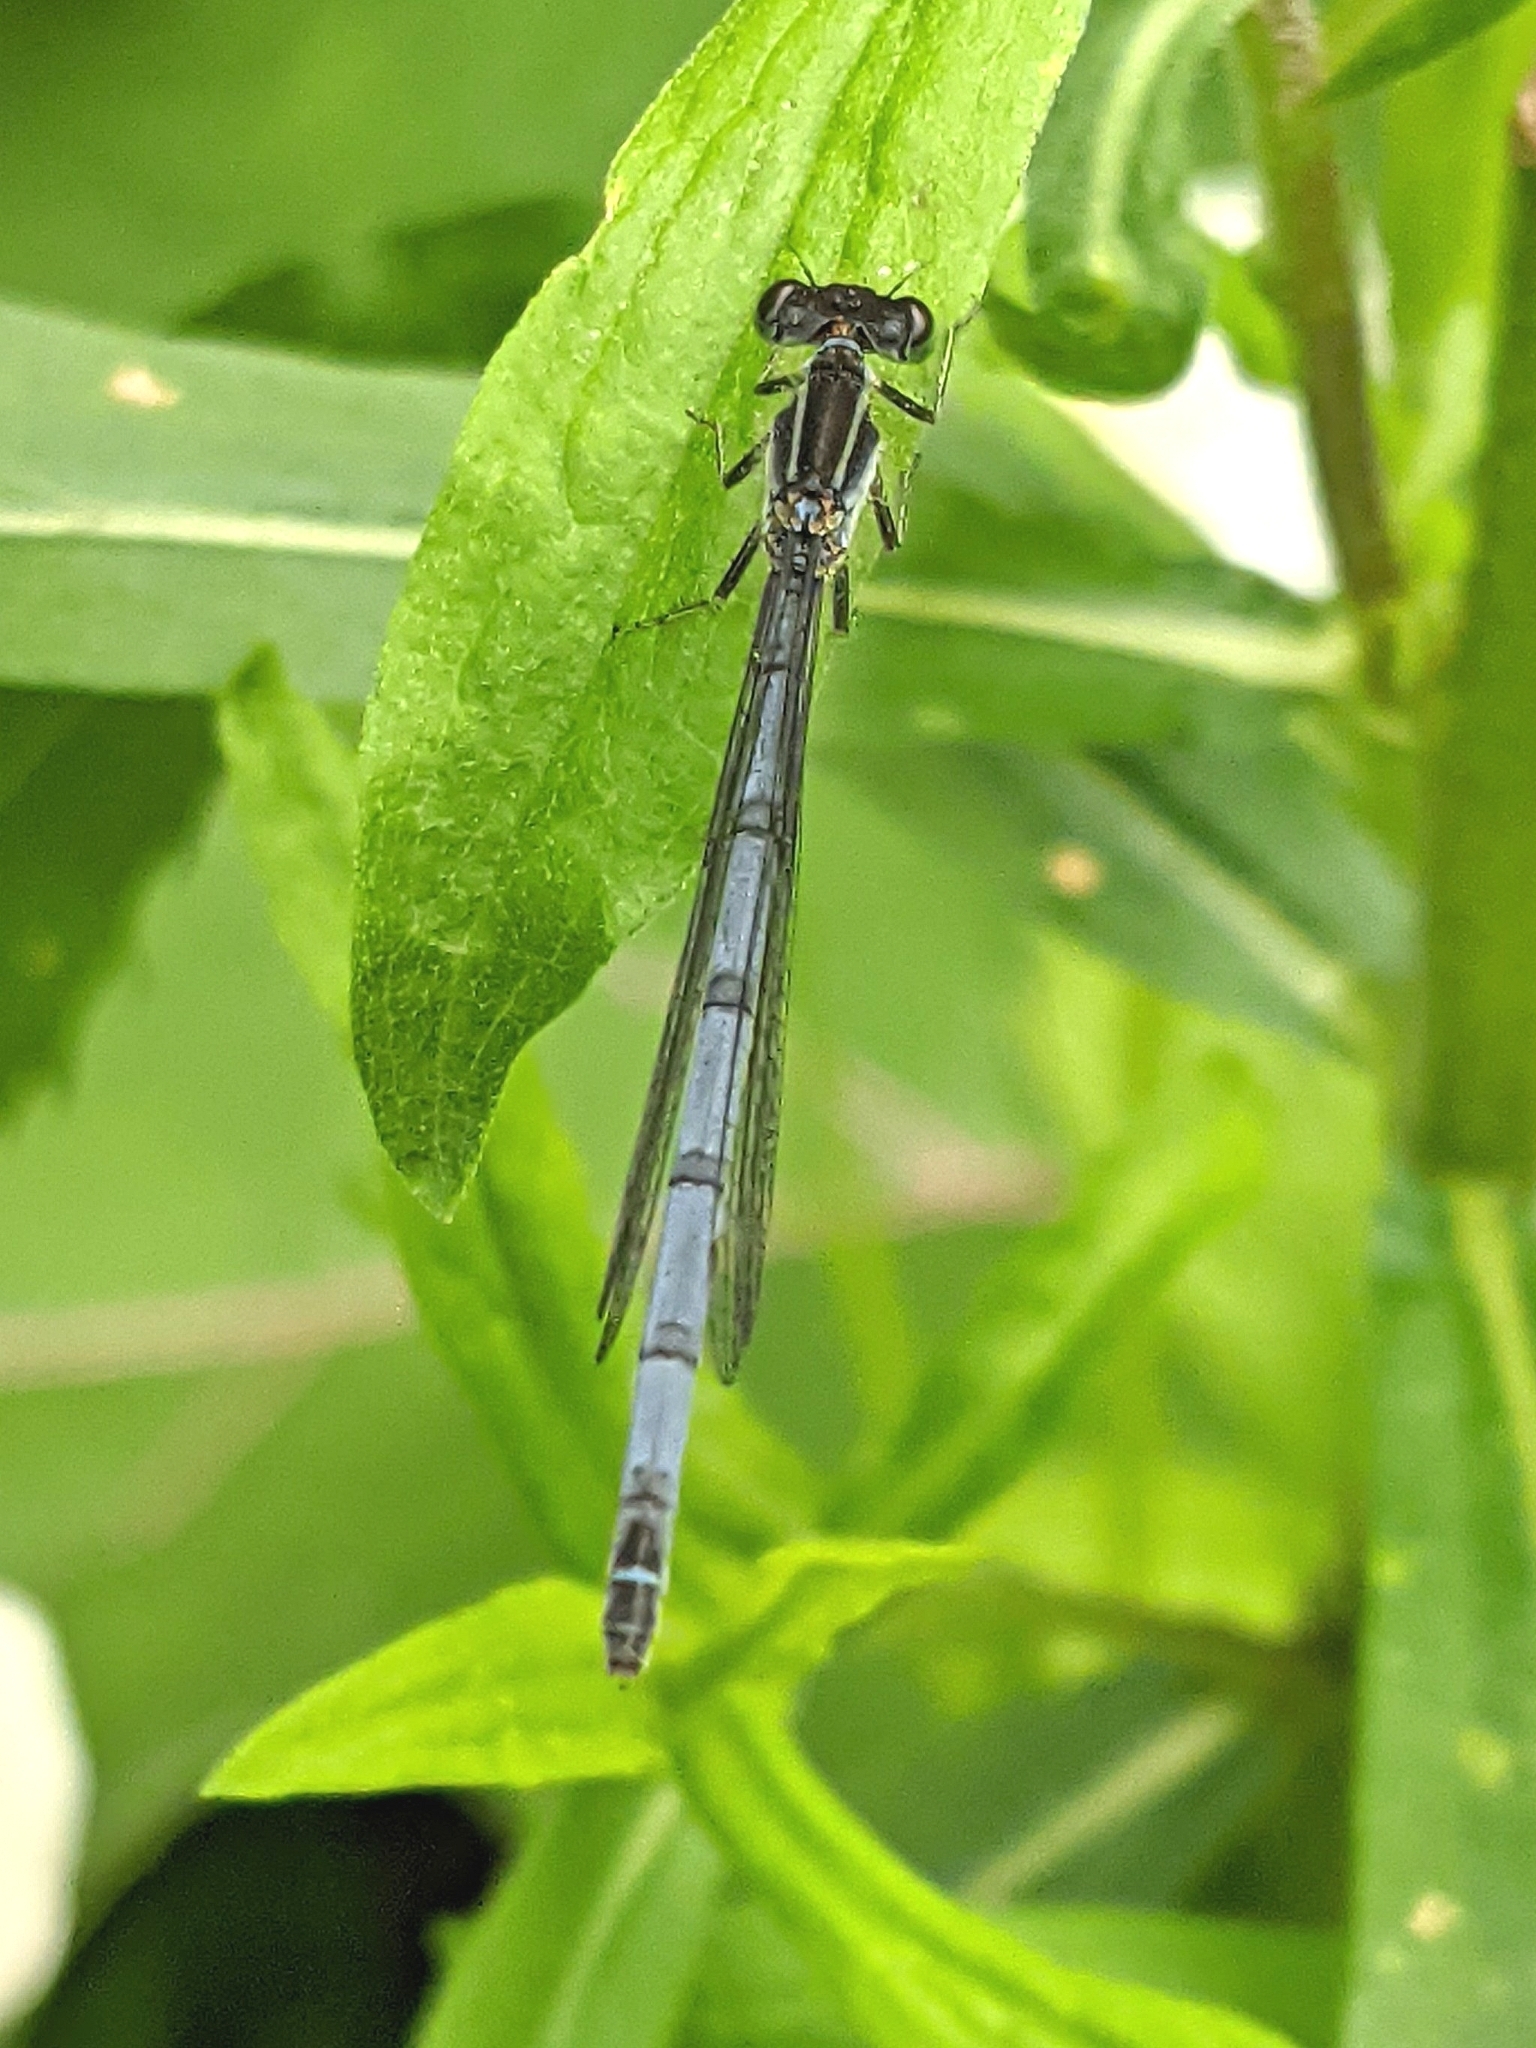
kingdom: Animalia
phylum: Arthropoda
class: Insecta
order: Odonata
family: Coenagrionidae
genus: Ischnura
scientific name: Ischnura verticalis
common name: Eastern forktail
